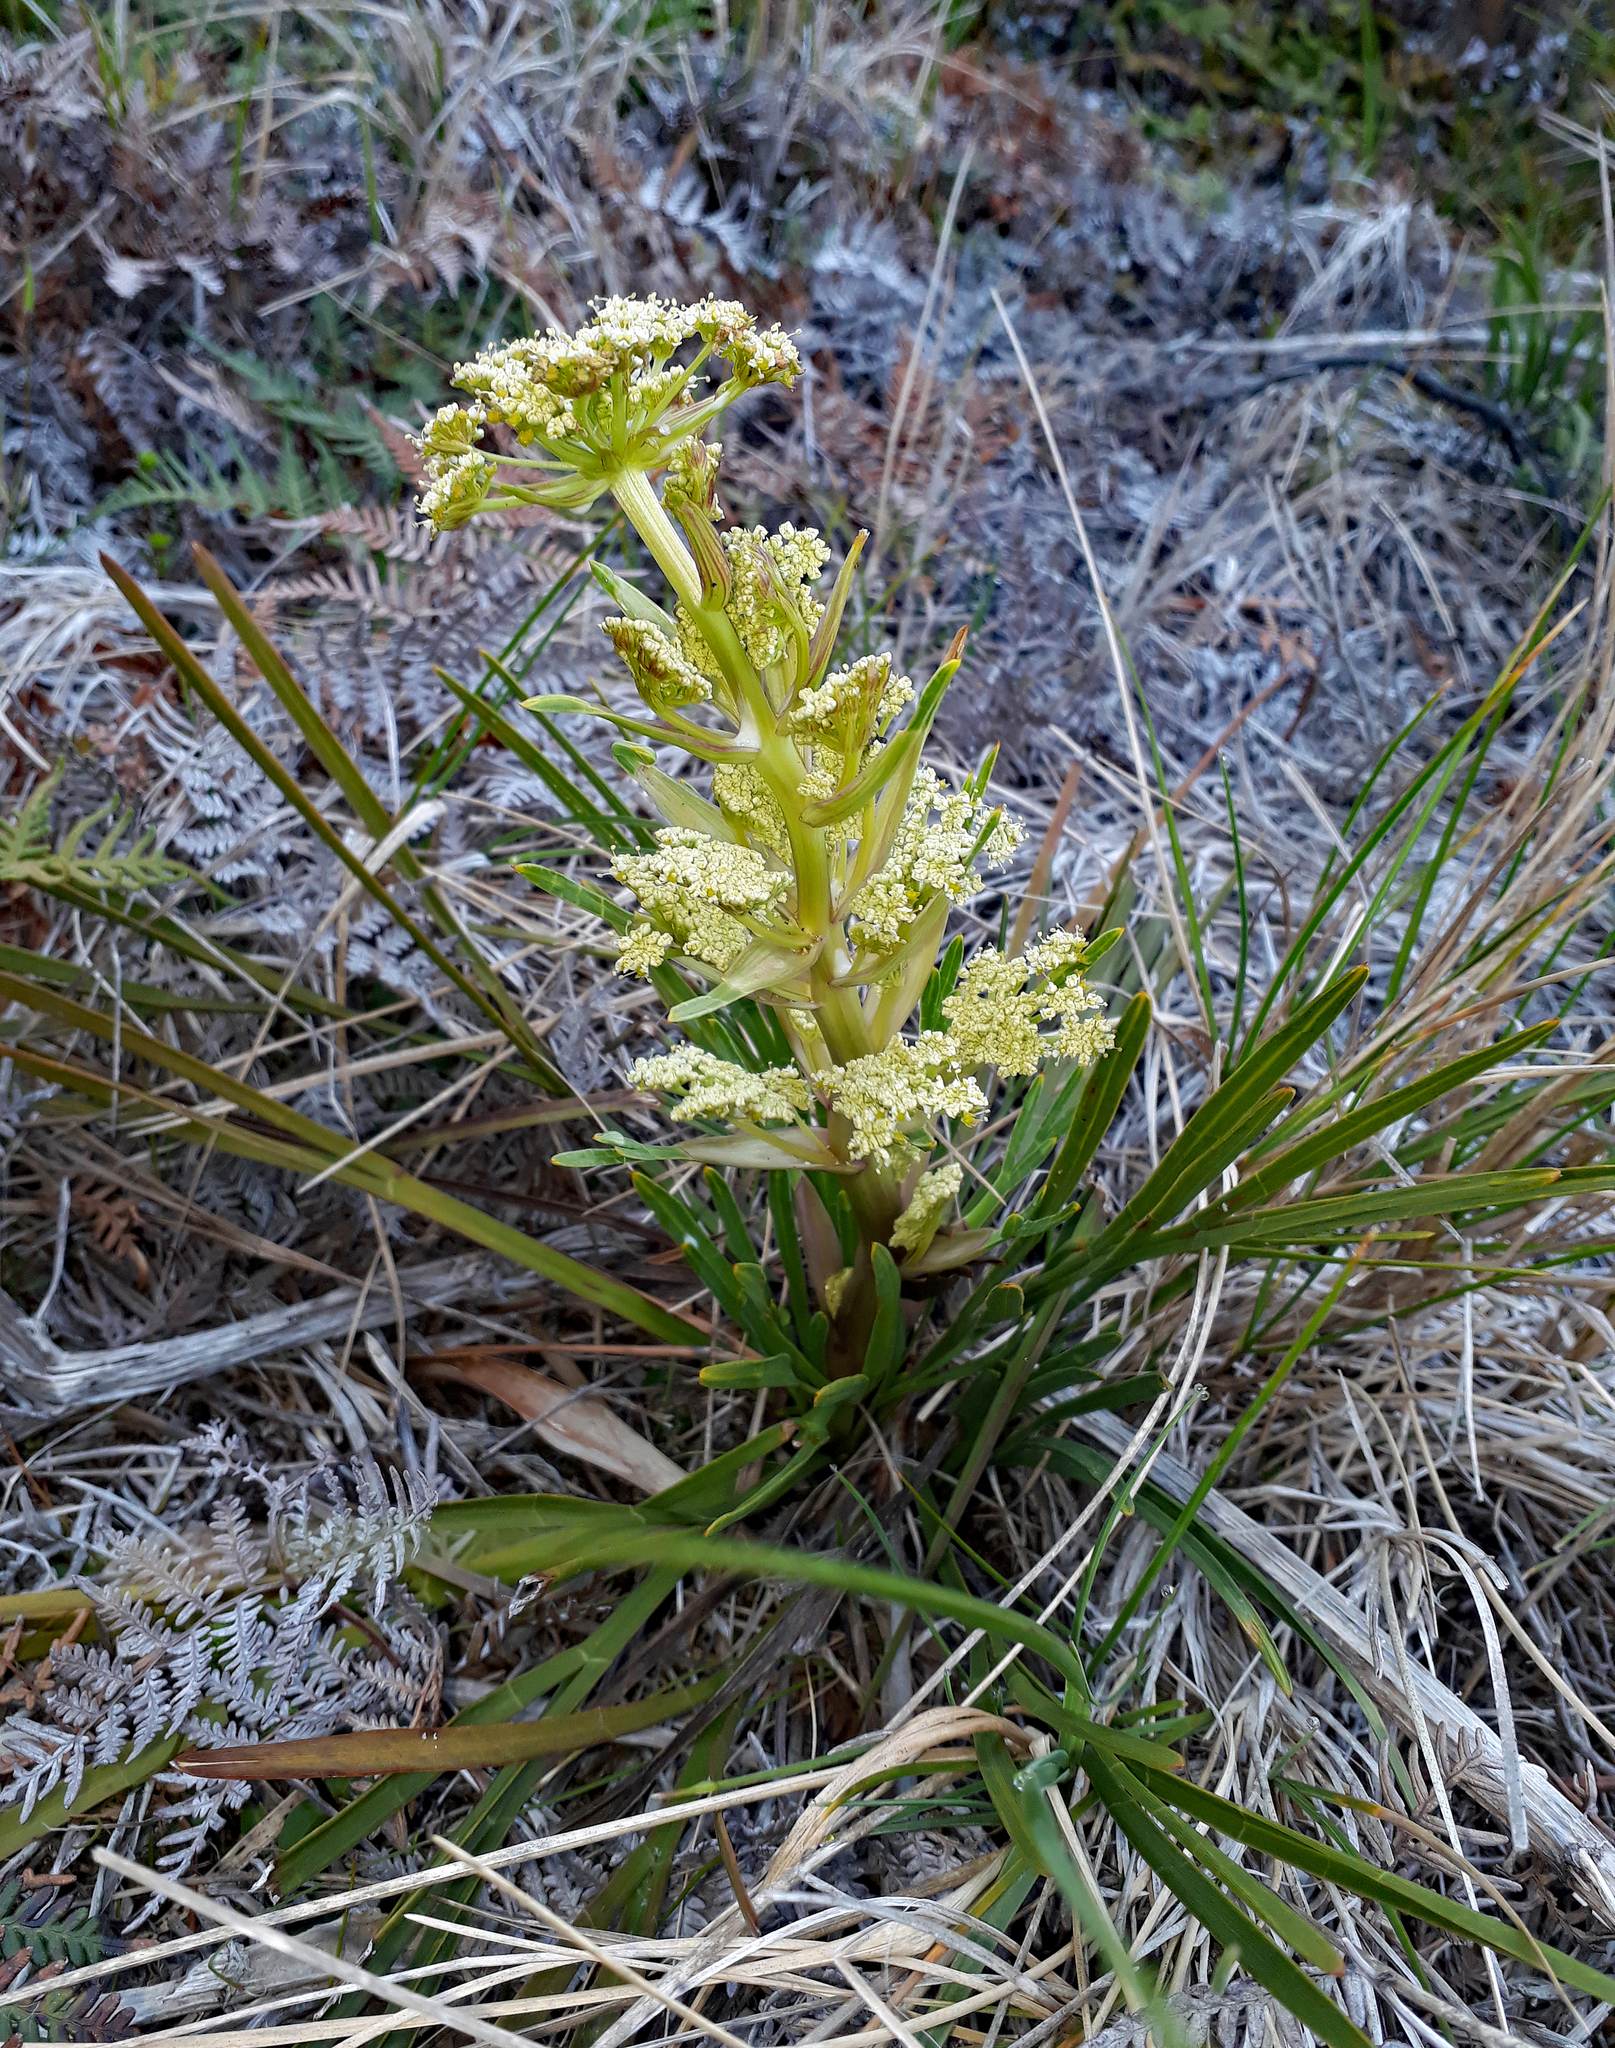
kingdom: Plantae
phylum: Tracheophyta
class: Magnoliopsida
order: Apiales
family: Apiaceae
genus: Aciphylla
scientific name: Aciphylla traversii
